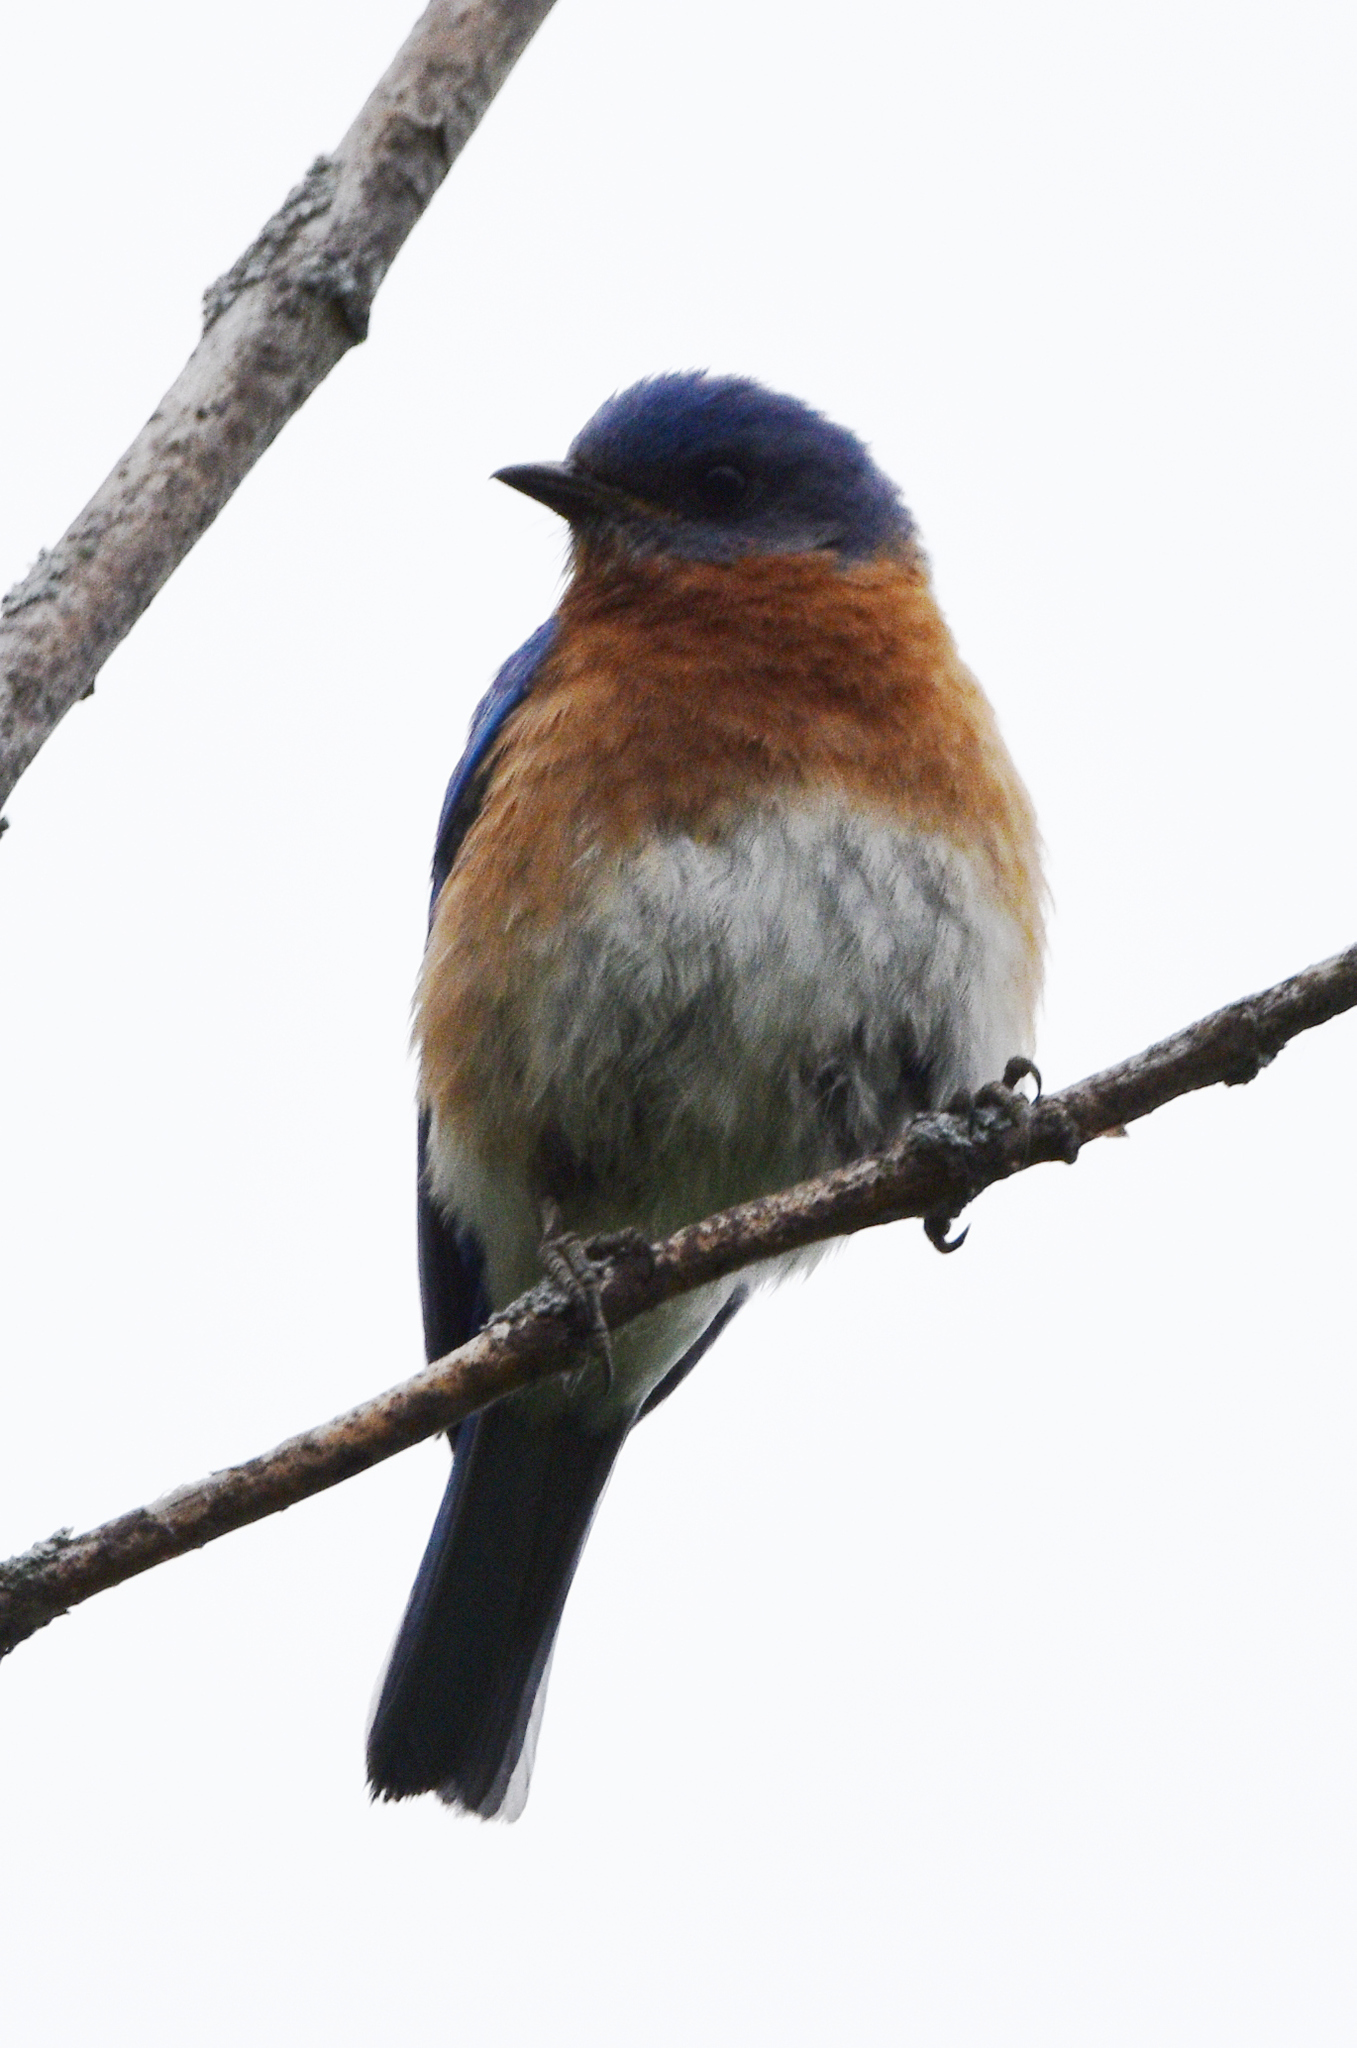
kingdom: Animalia
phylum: Chordata
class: Aves
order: Passeriformes
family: Turdidae
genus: Sialia
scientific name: Sialia sialis
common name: Eastern bluebird
